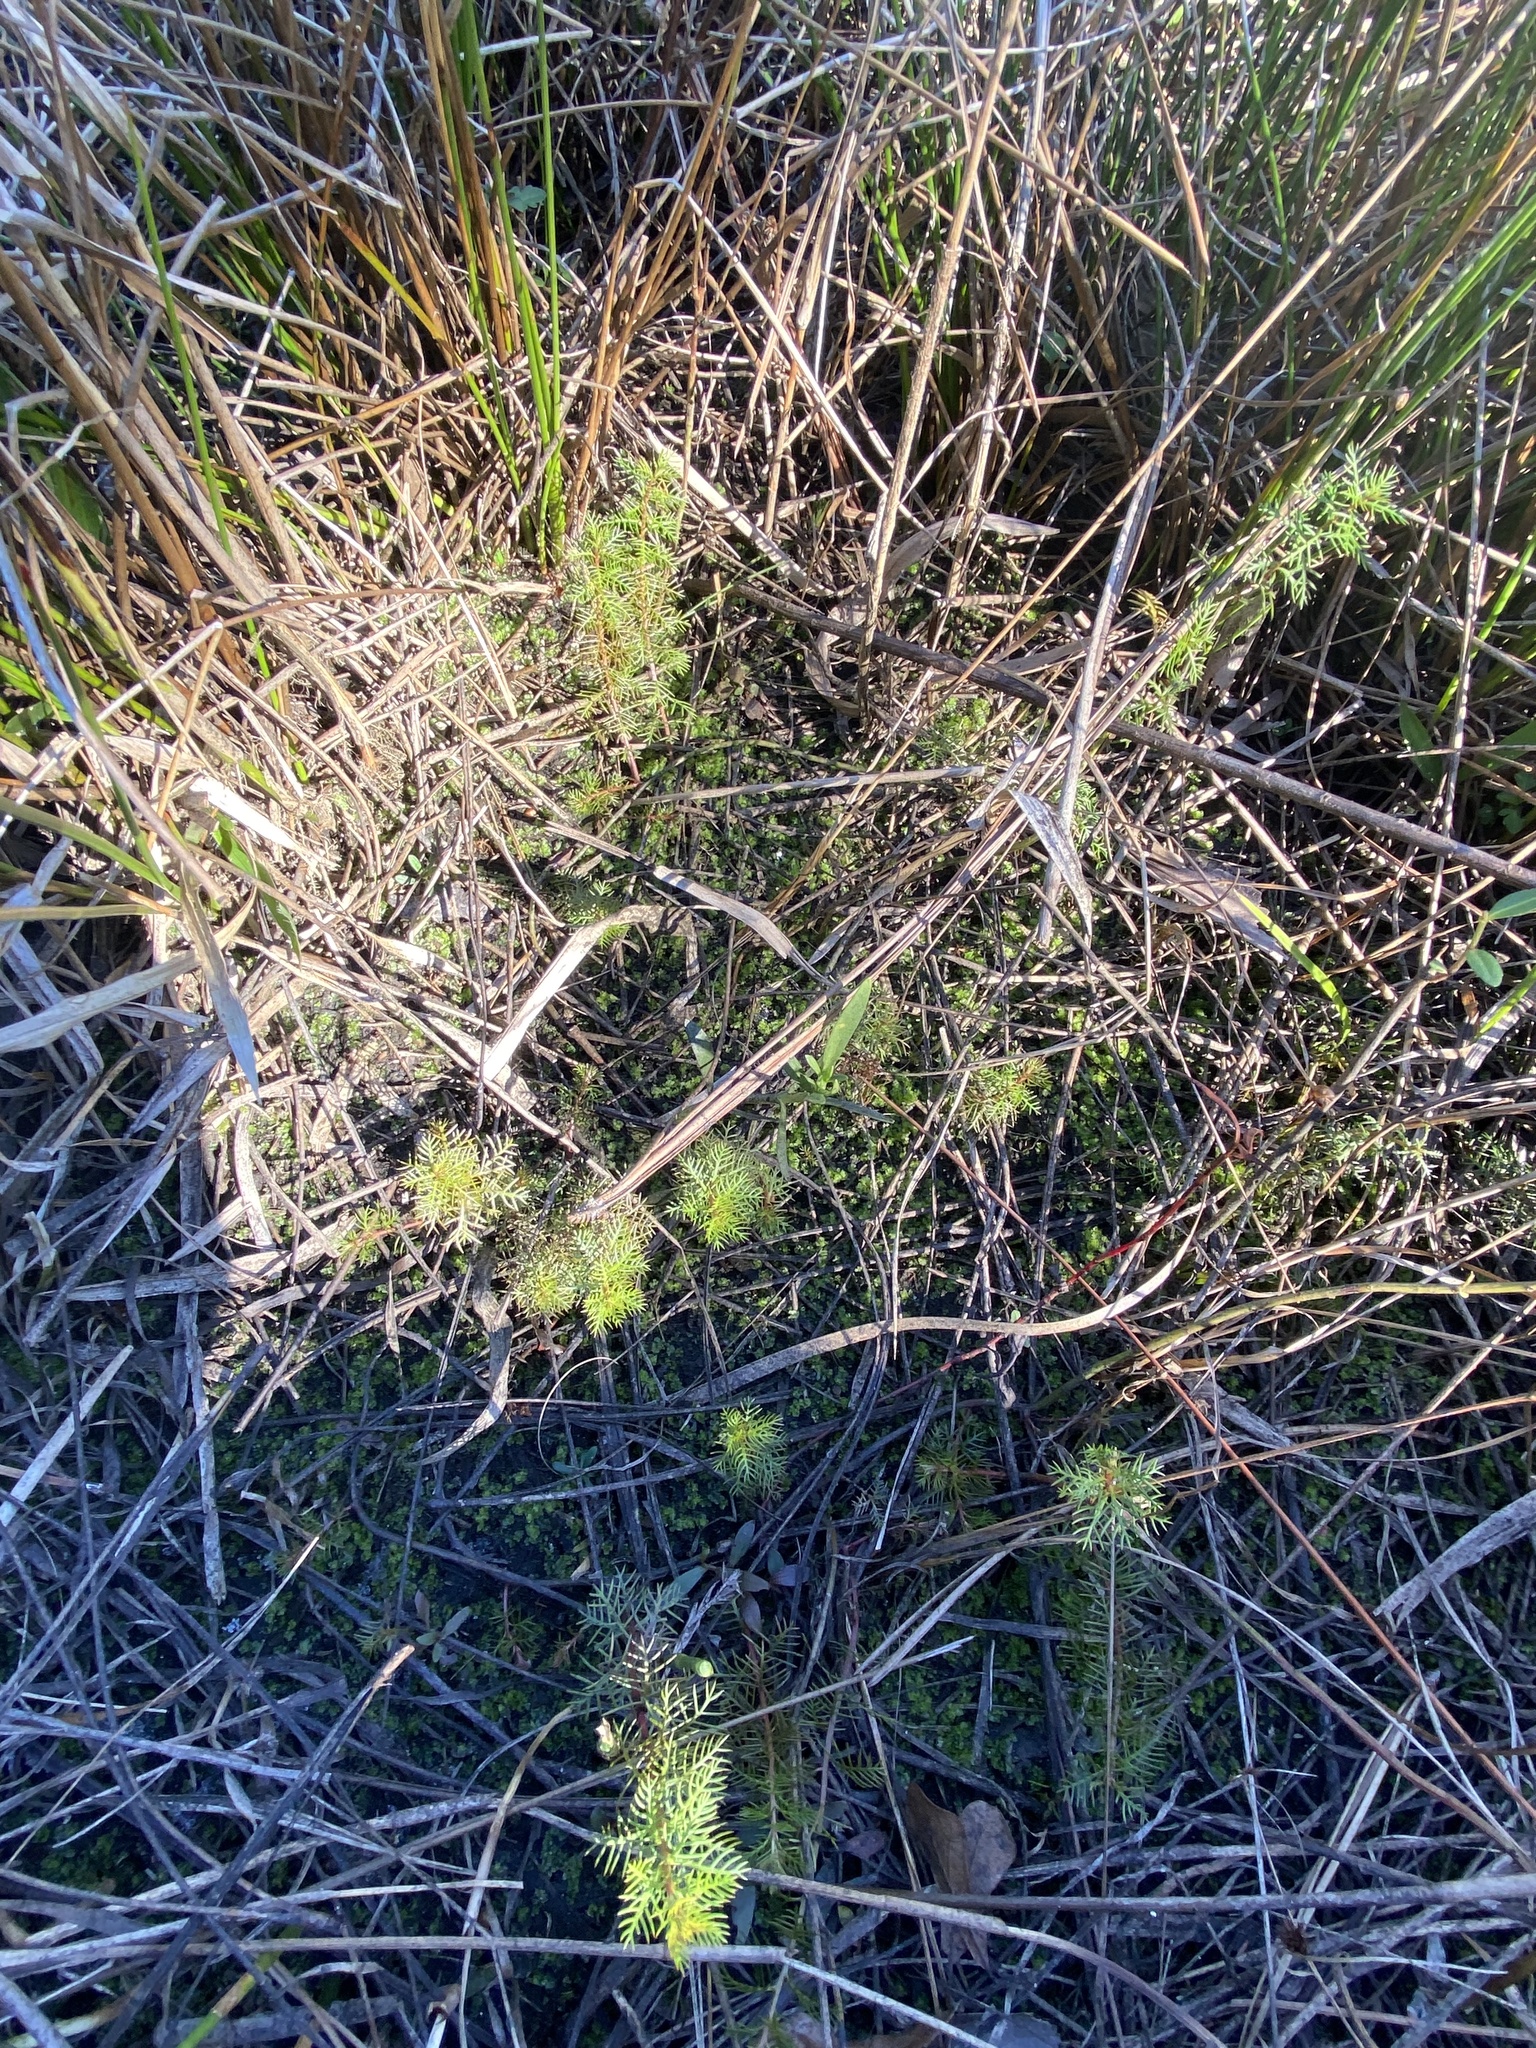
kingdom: Plantae
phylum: Tracheophyta
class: Magnoliopsida
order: Saxifragales
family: Haloragaceae
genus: Proserpinaca
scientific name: Proserpinaca pectinata
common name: Comb-leaved mermaidweed
